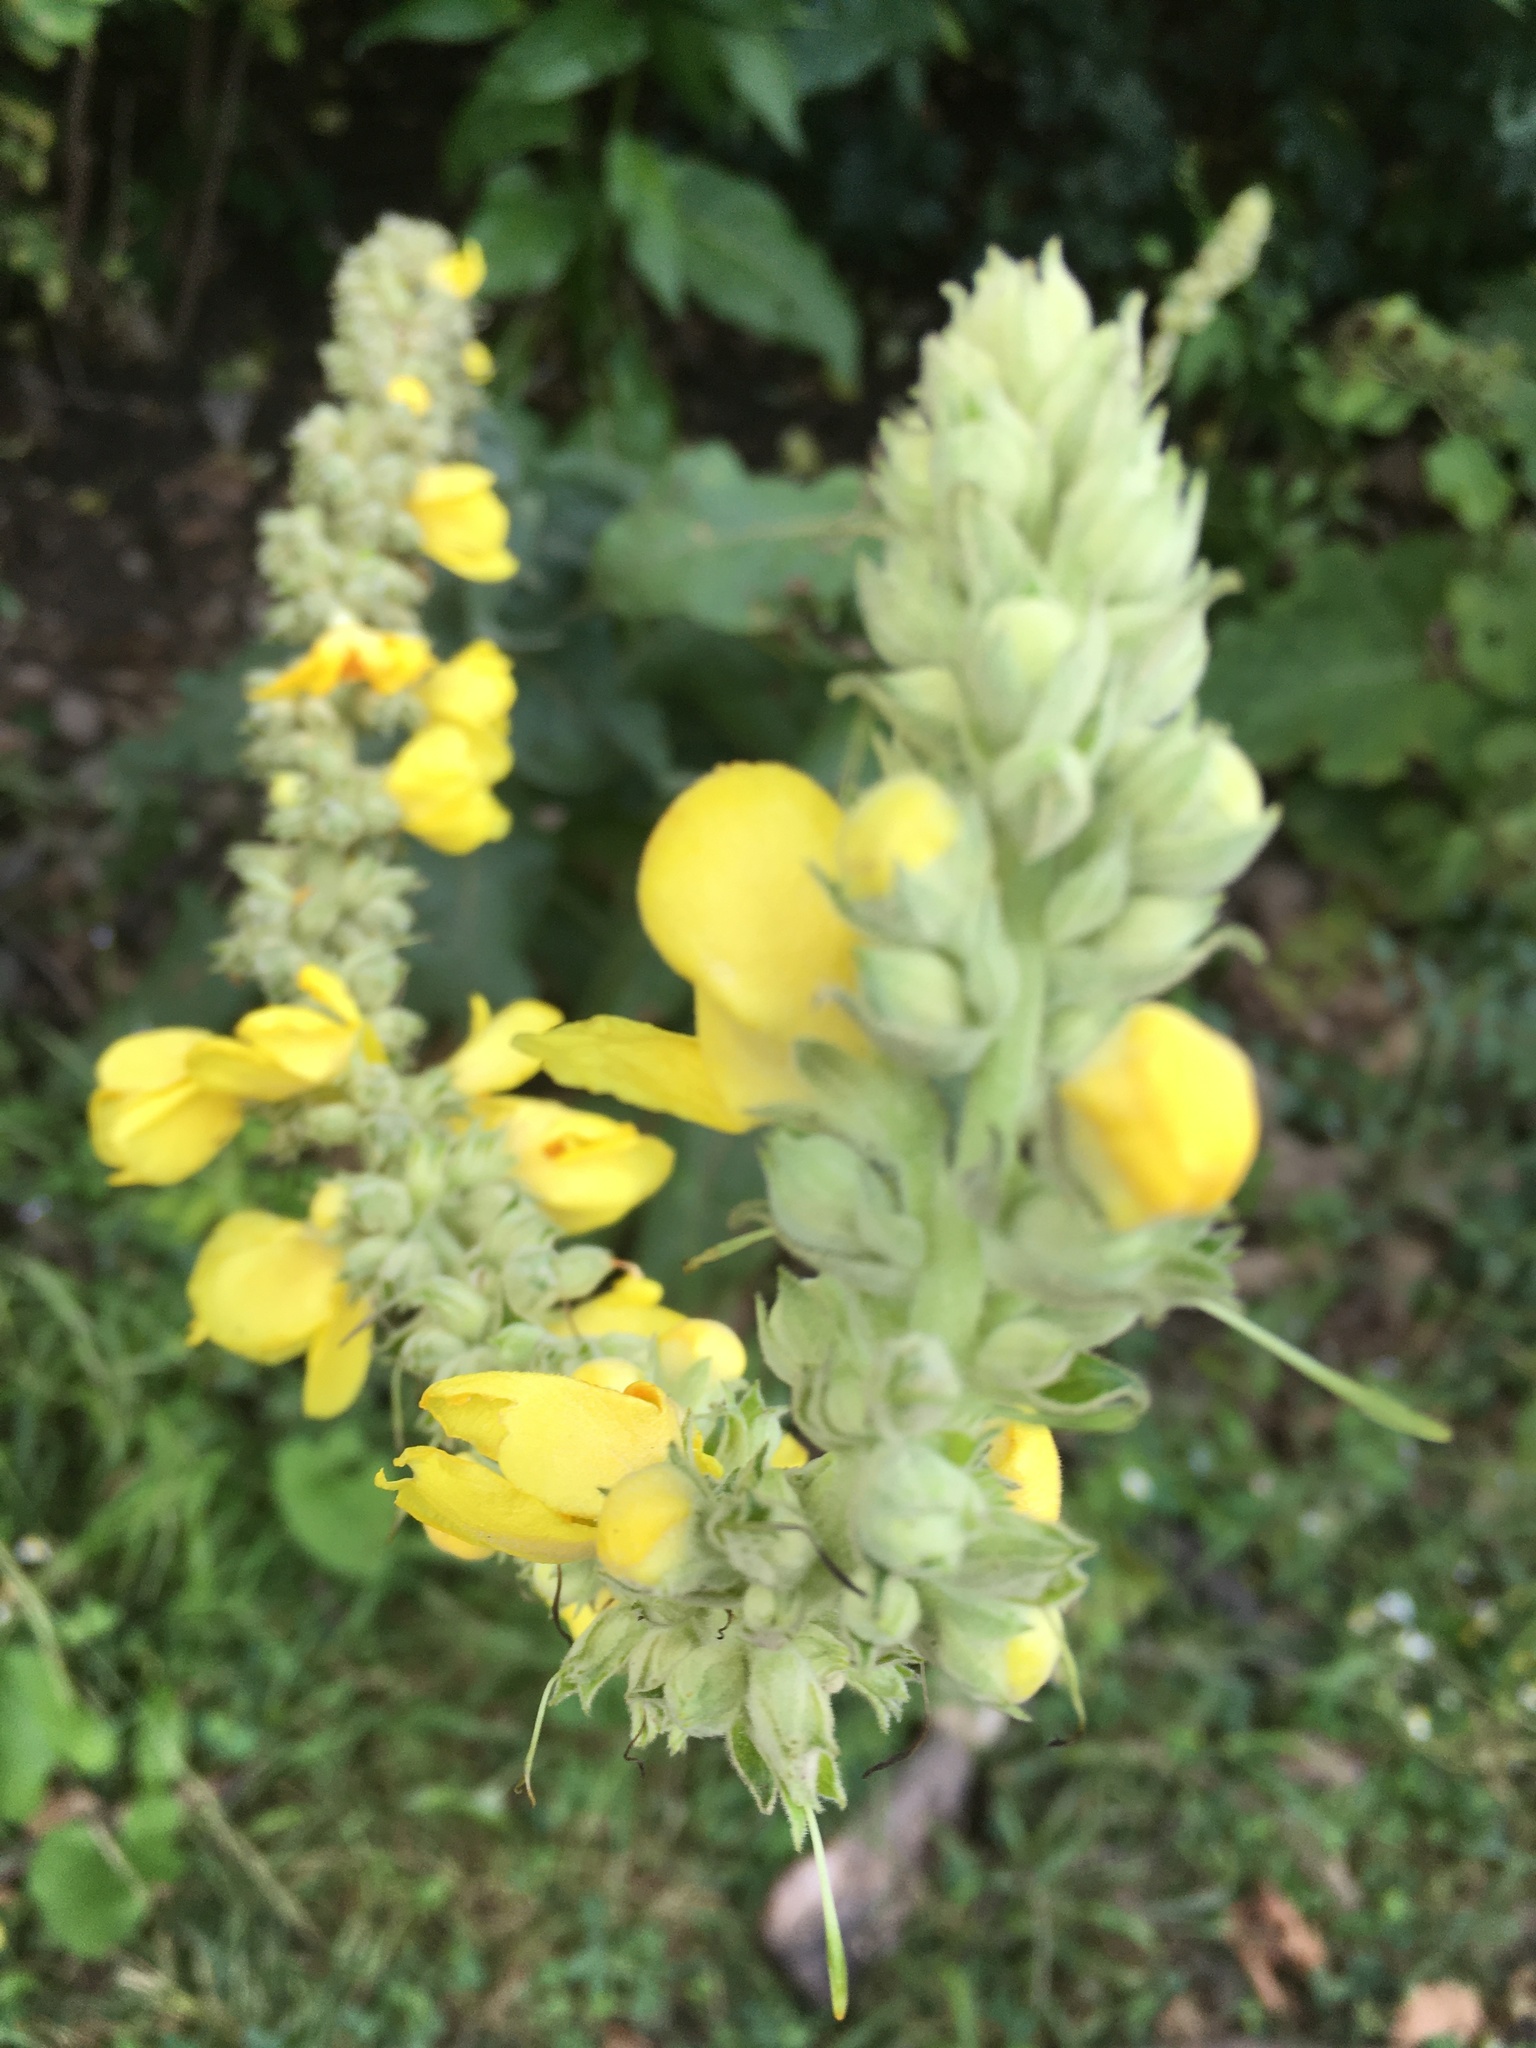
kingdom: Plantae
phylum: Tracheophyta
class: Magnoliopsida
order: Lamiales
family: Scrophulariaceae
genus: Verbascum
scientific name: Verbascum
